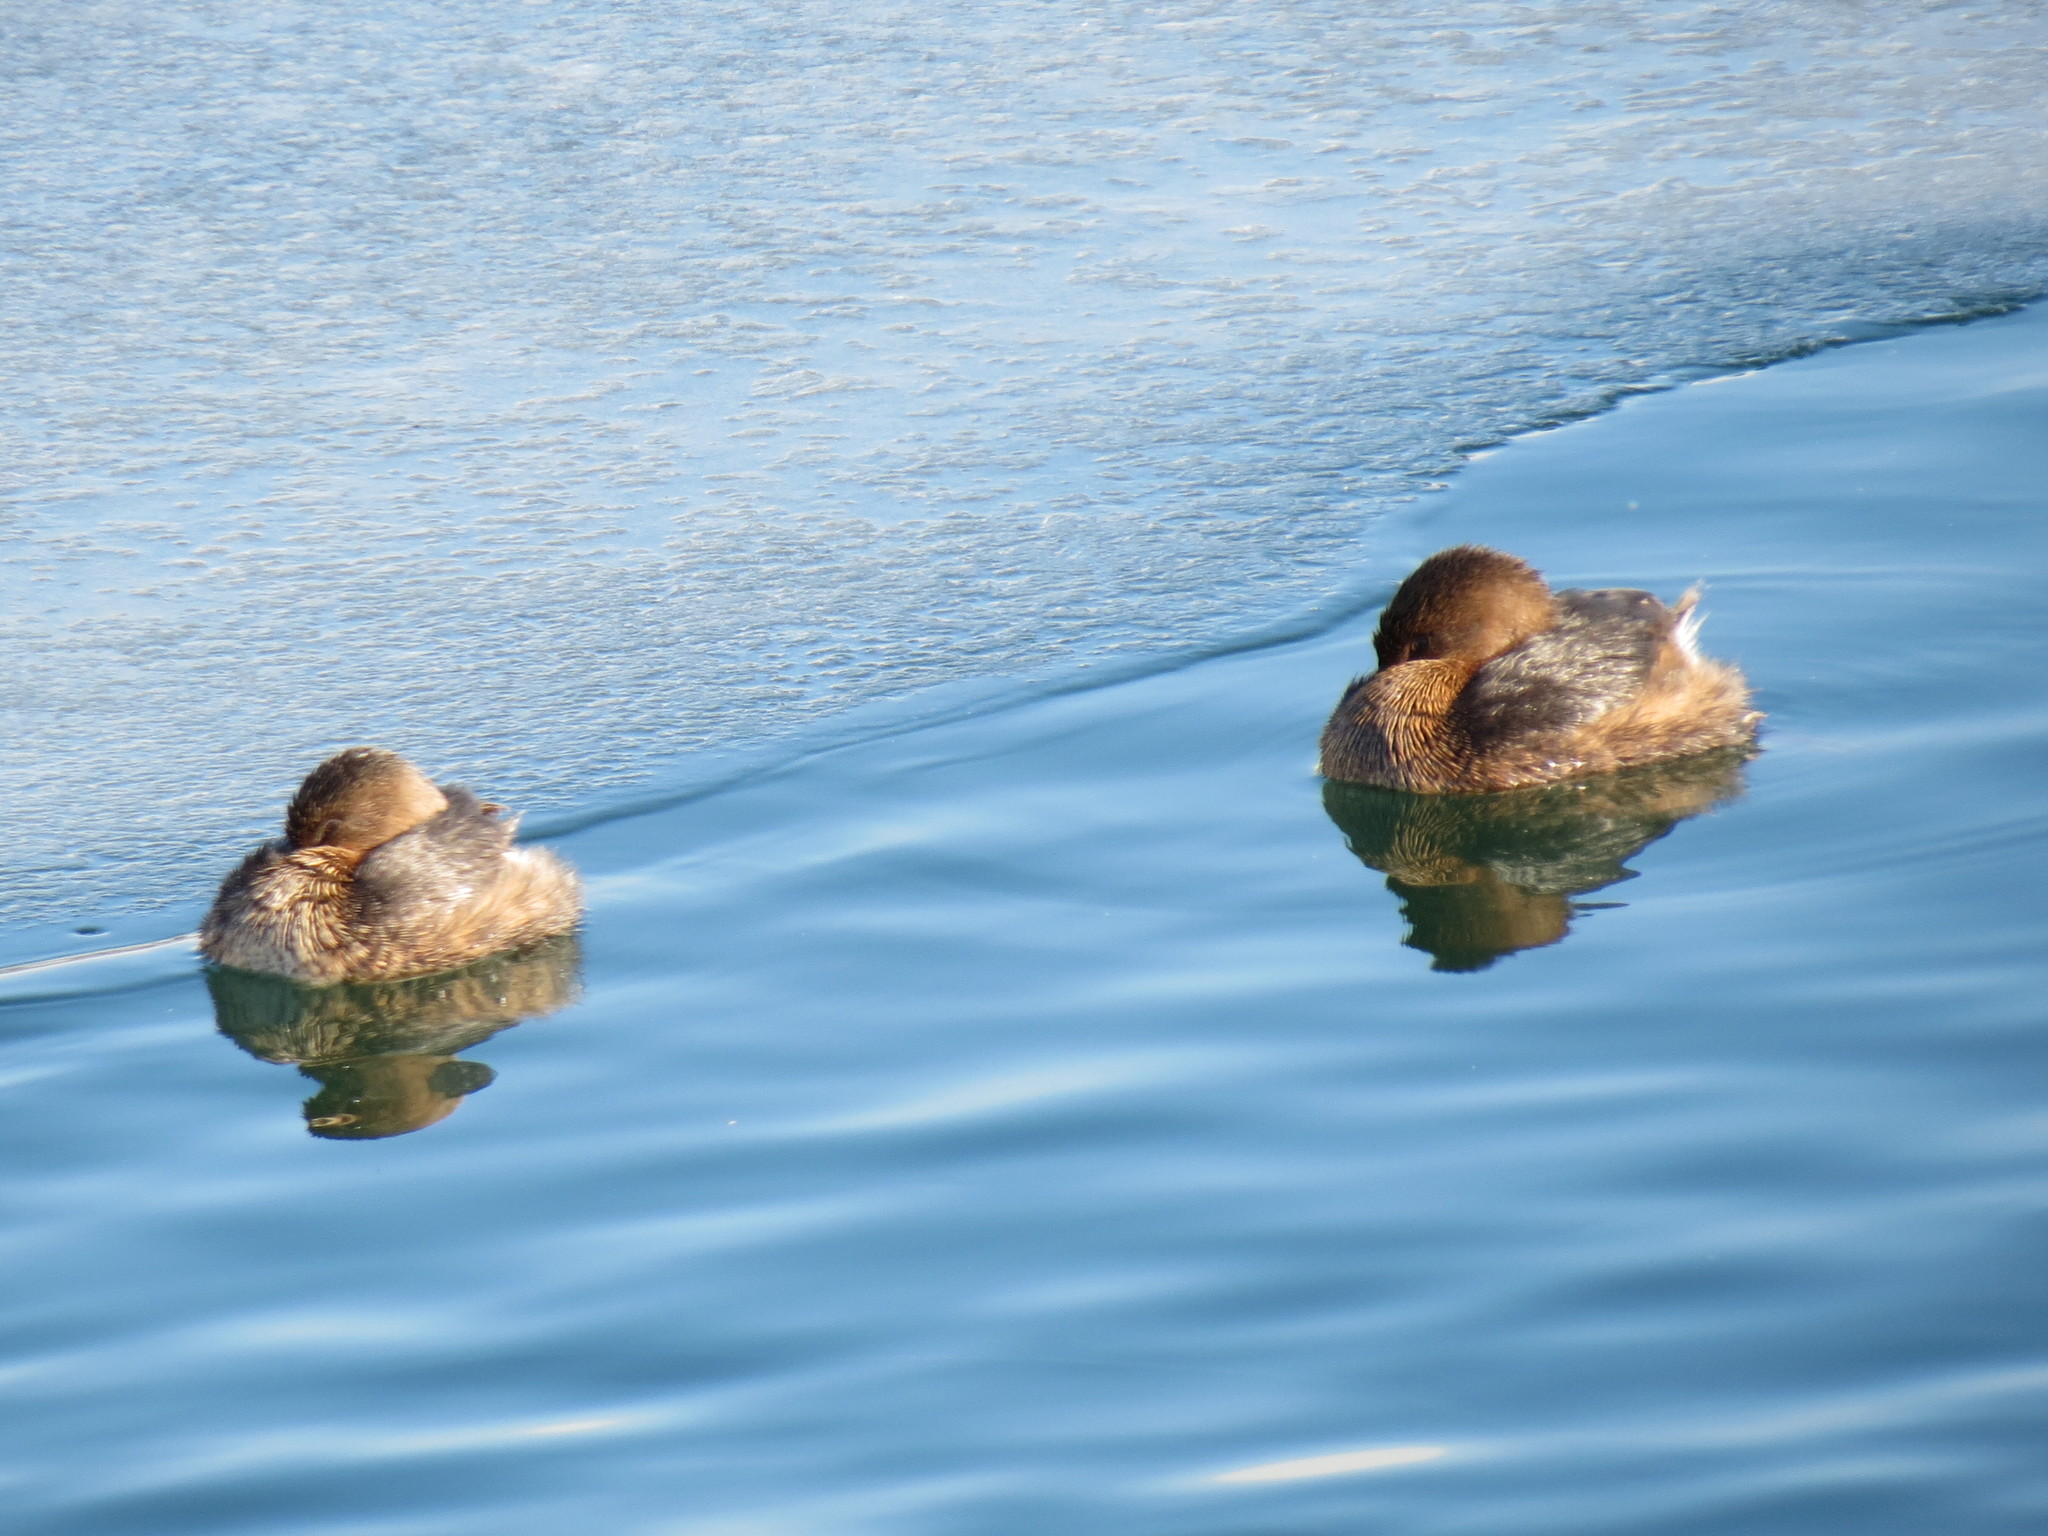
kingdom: Animalia
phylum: Chordata
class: Aves
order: Podicipediformes
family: Podicipedidae
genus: Podilymbus
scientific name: Podilymbus podiceps
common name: Pied-billed grebe
